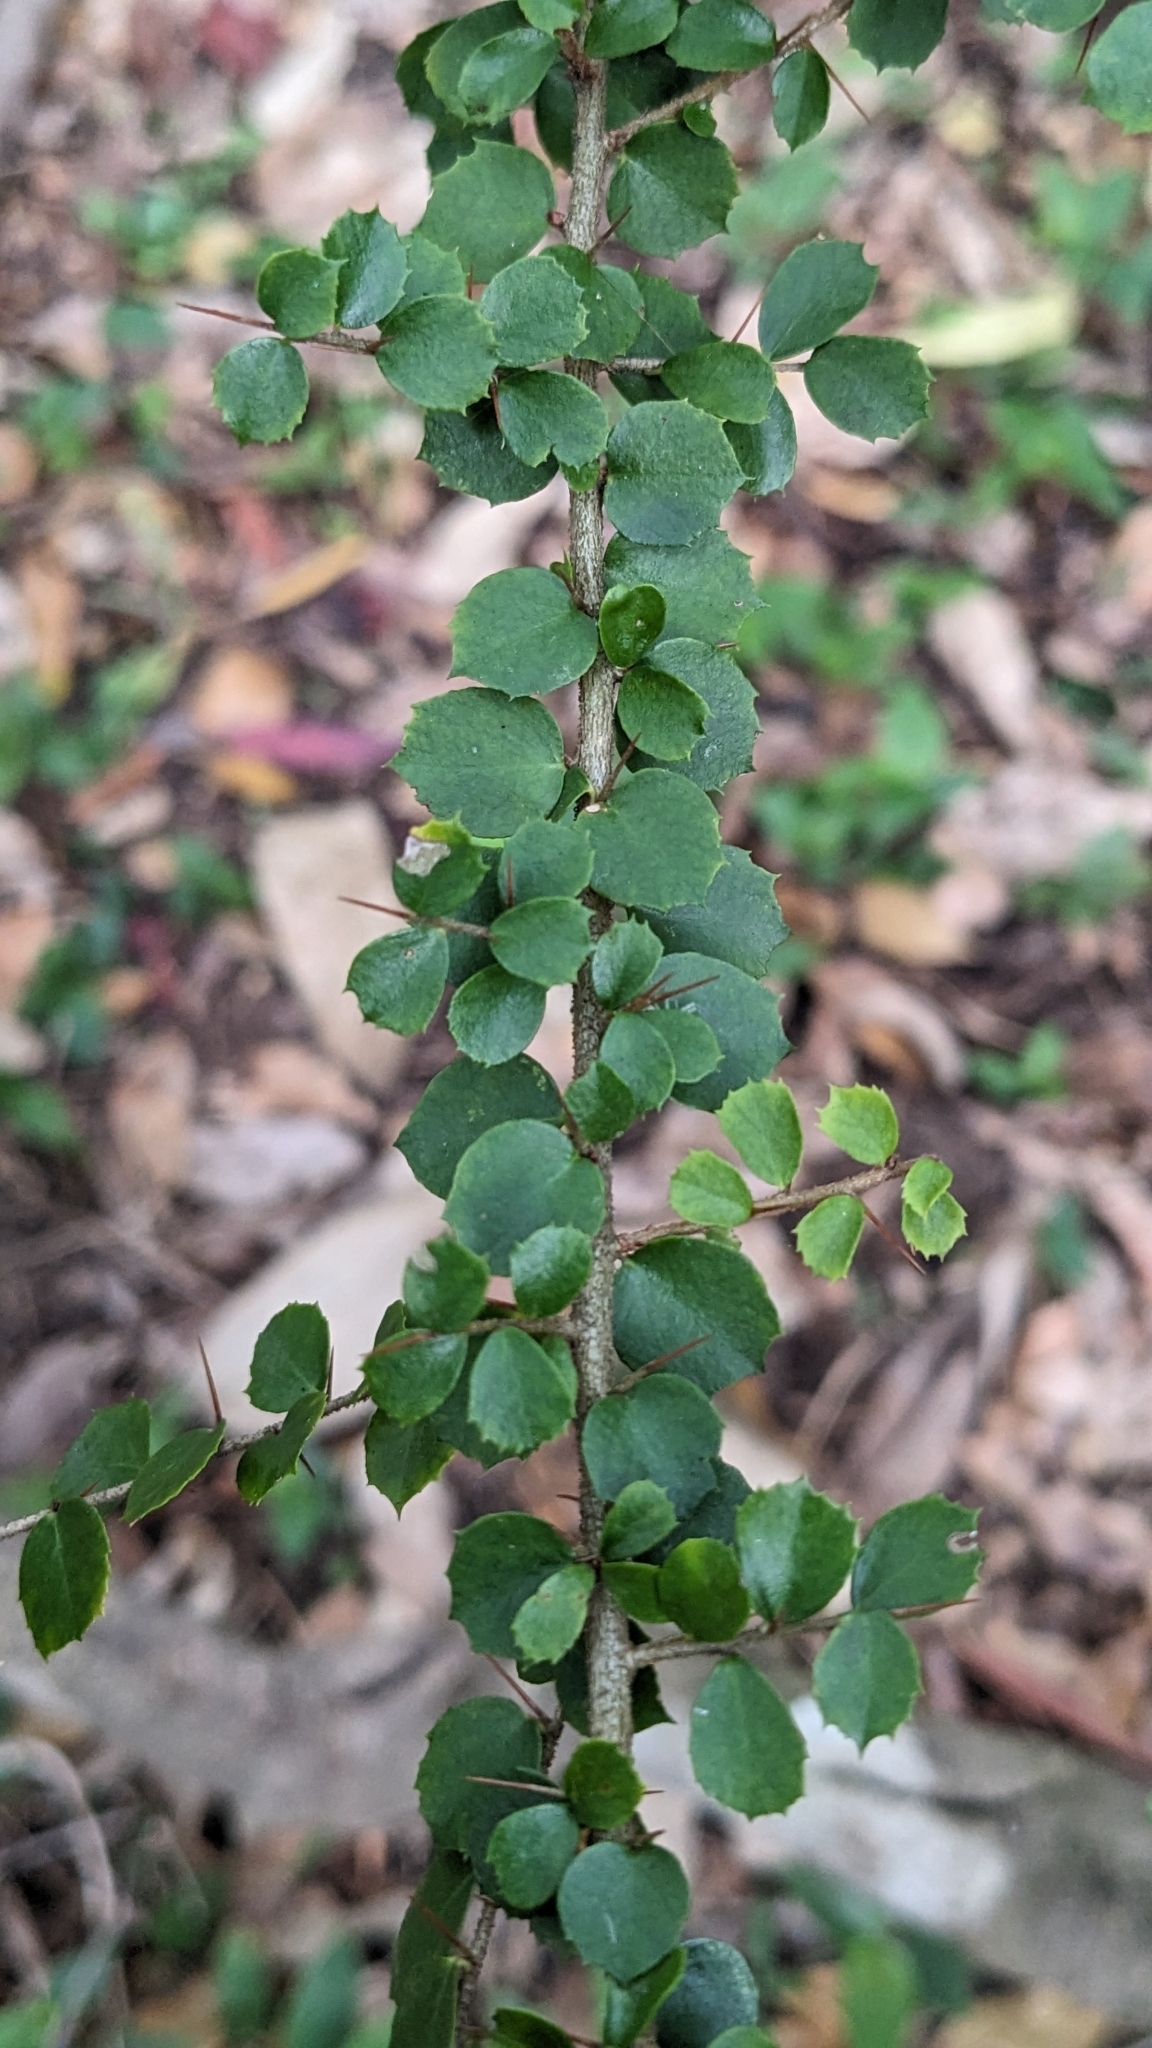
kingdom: Plantae
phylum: Tracheophyta
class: Magnoliopsida
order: Apiales
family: Pittosporaceae
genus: Pittosporum
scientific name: Pittosporum multiflorum
